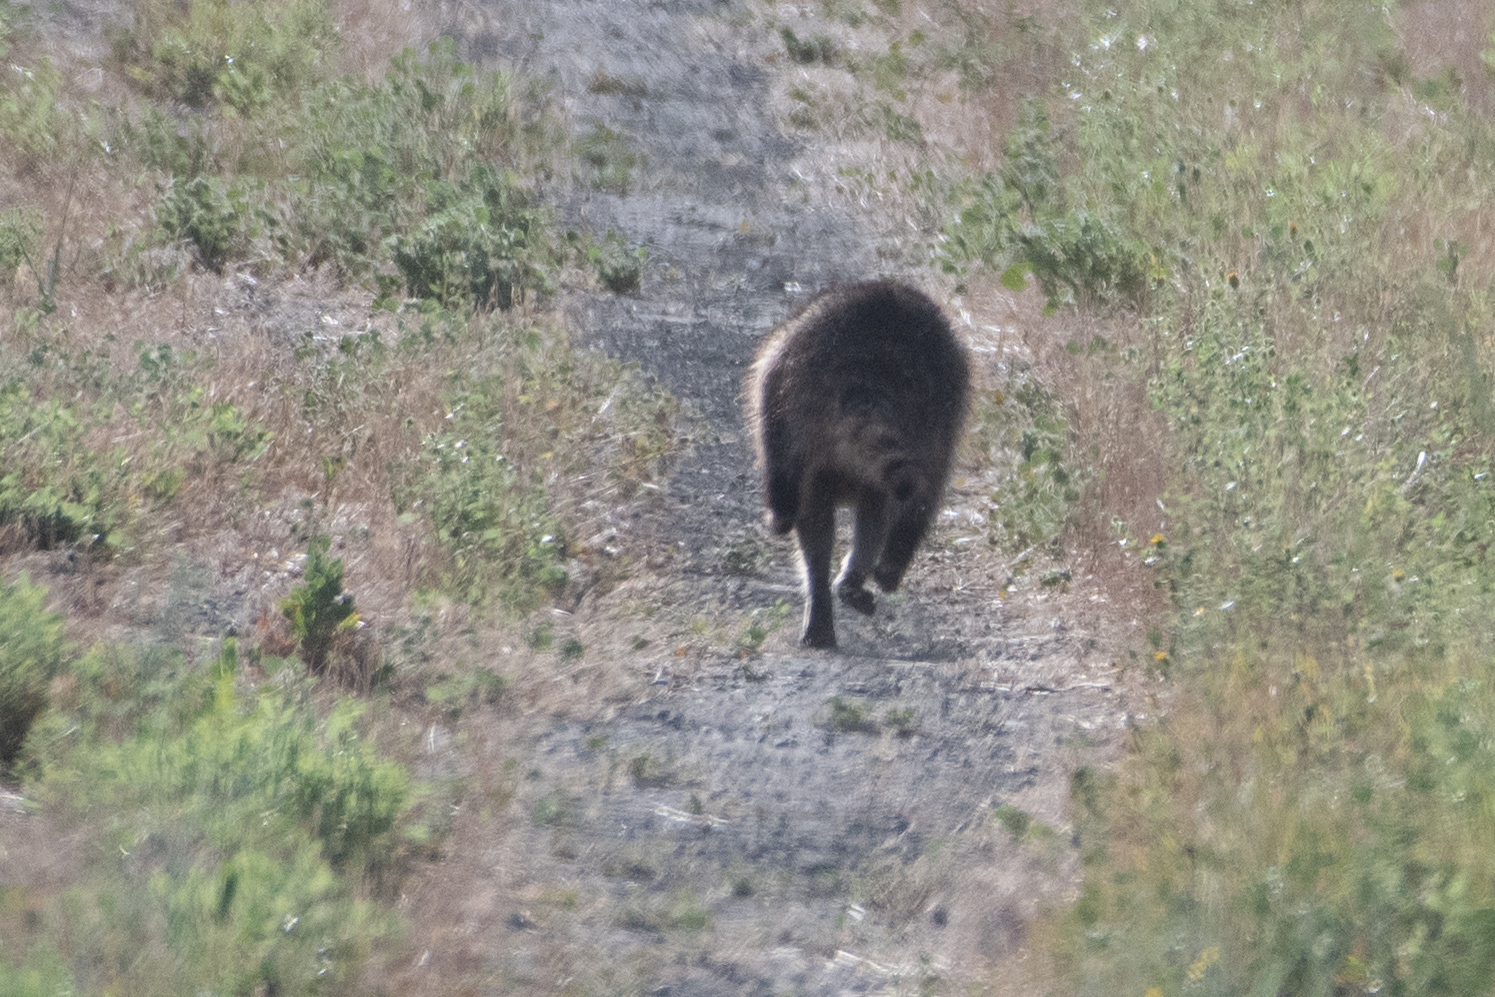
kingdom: Animalia
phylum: Chordata
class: Mammalia
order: Carnivora
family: Procyonidae
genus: Procyon
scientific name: Procyon lotor
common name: Raccoon
